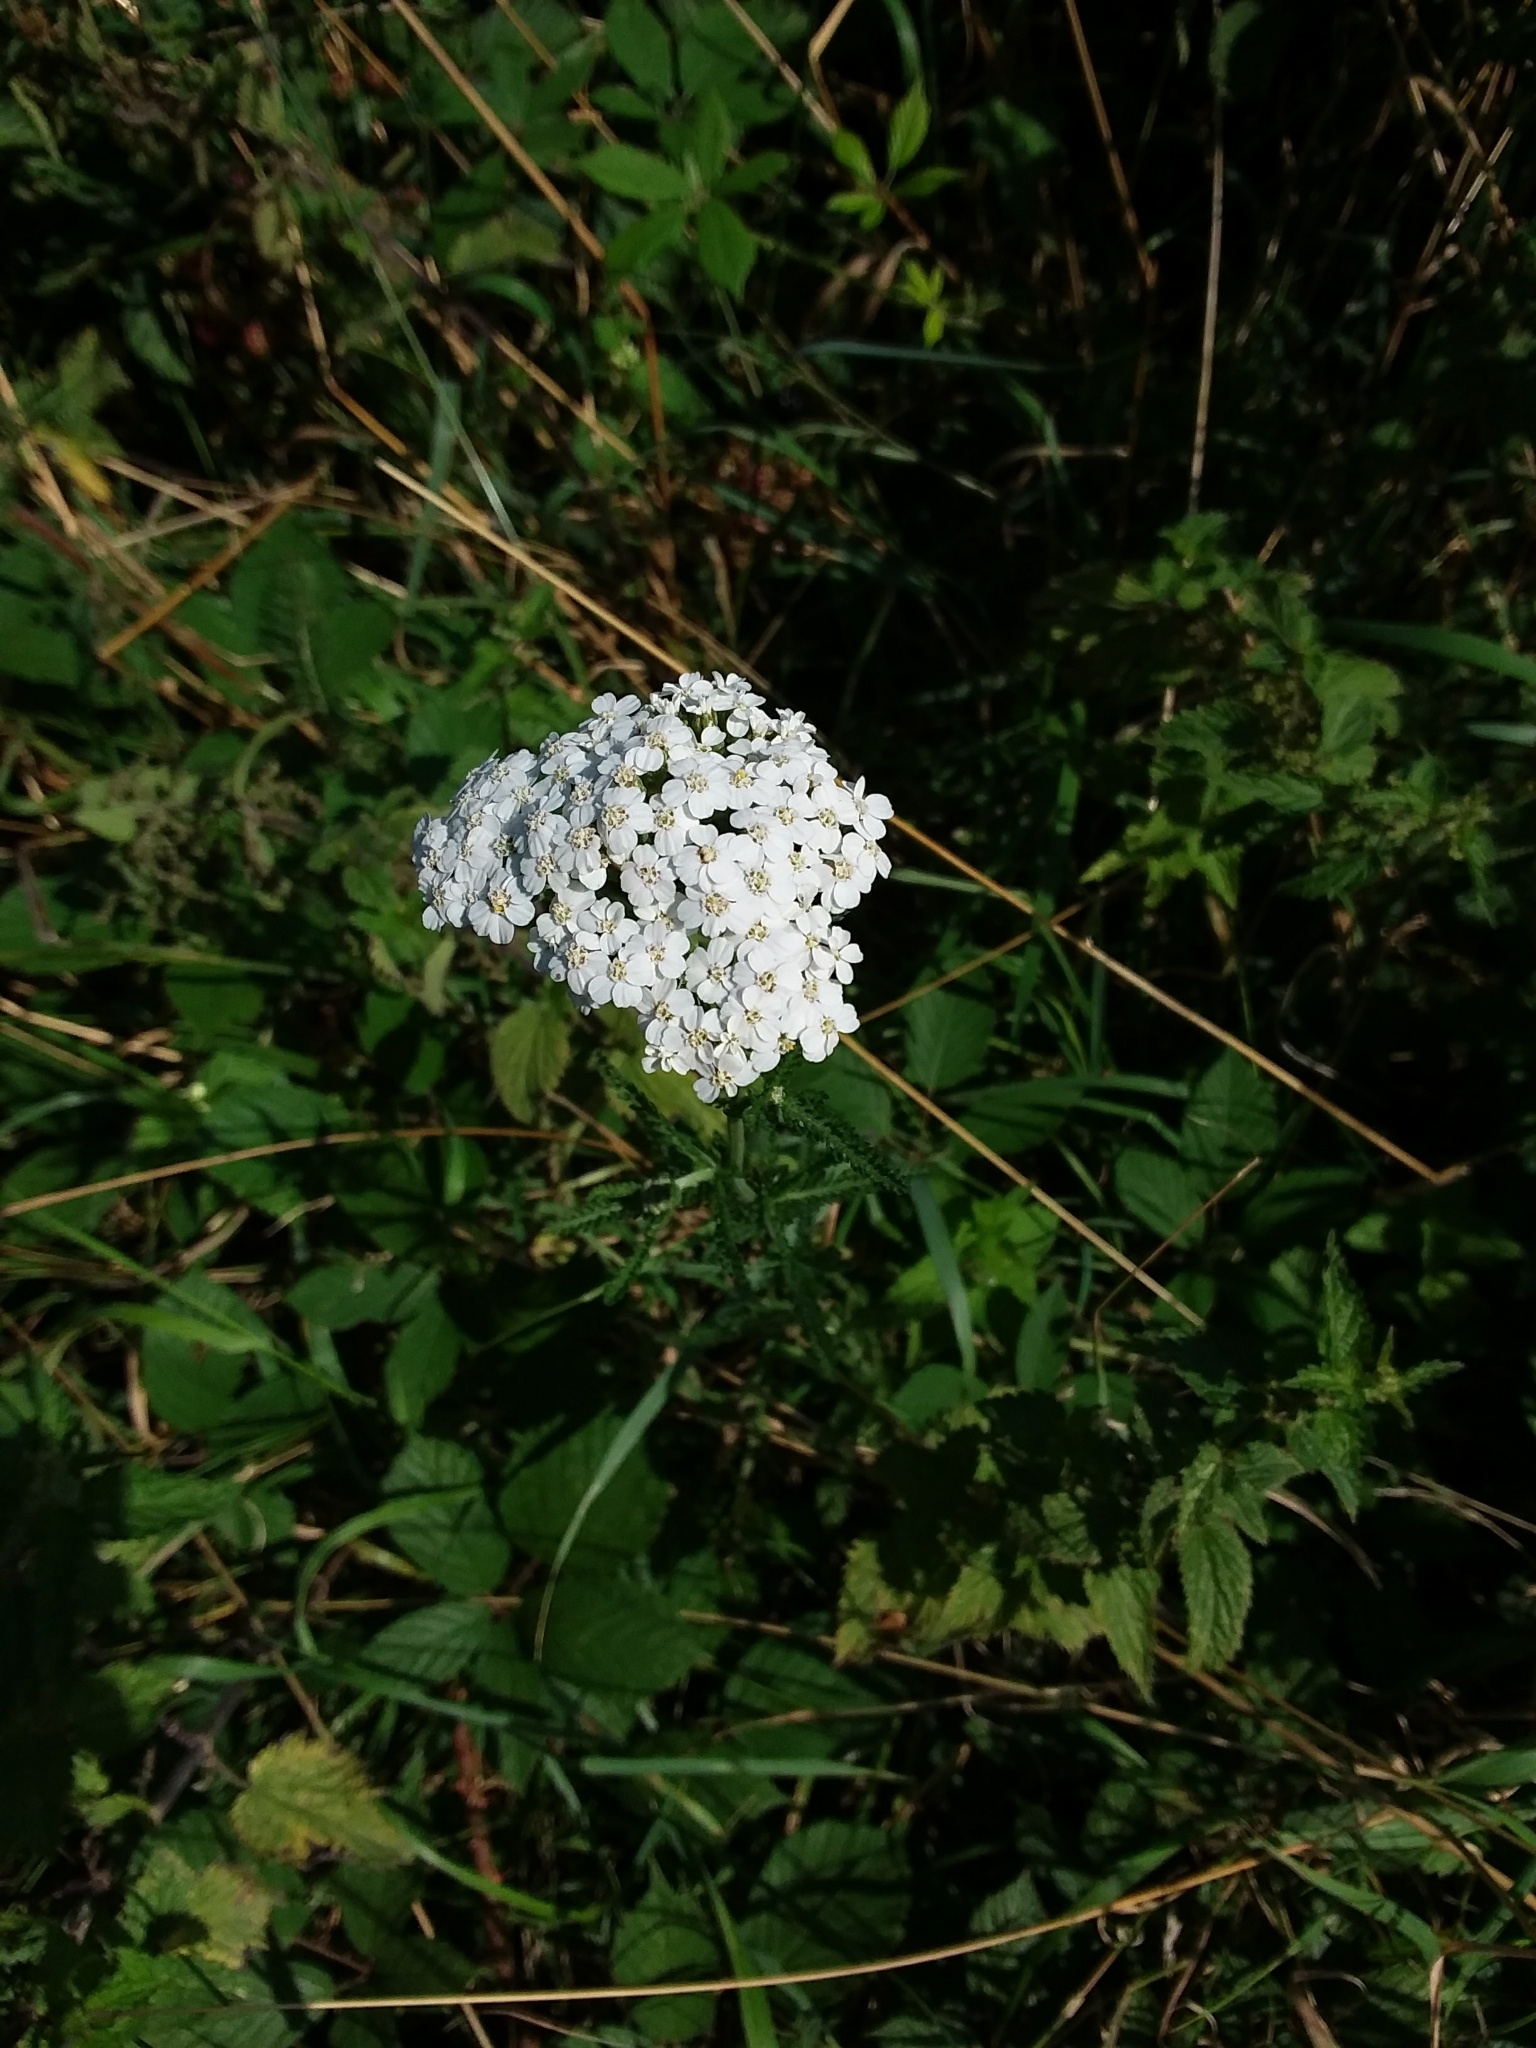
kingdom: Plantae
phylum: Tracheophyta
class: Magnoliopsida
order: Asterales
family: Asteraceae
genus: Achillea
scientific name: Achillea millefolium
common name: Yarrow
